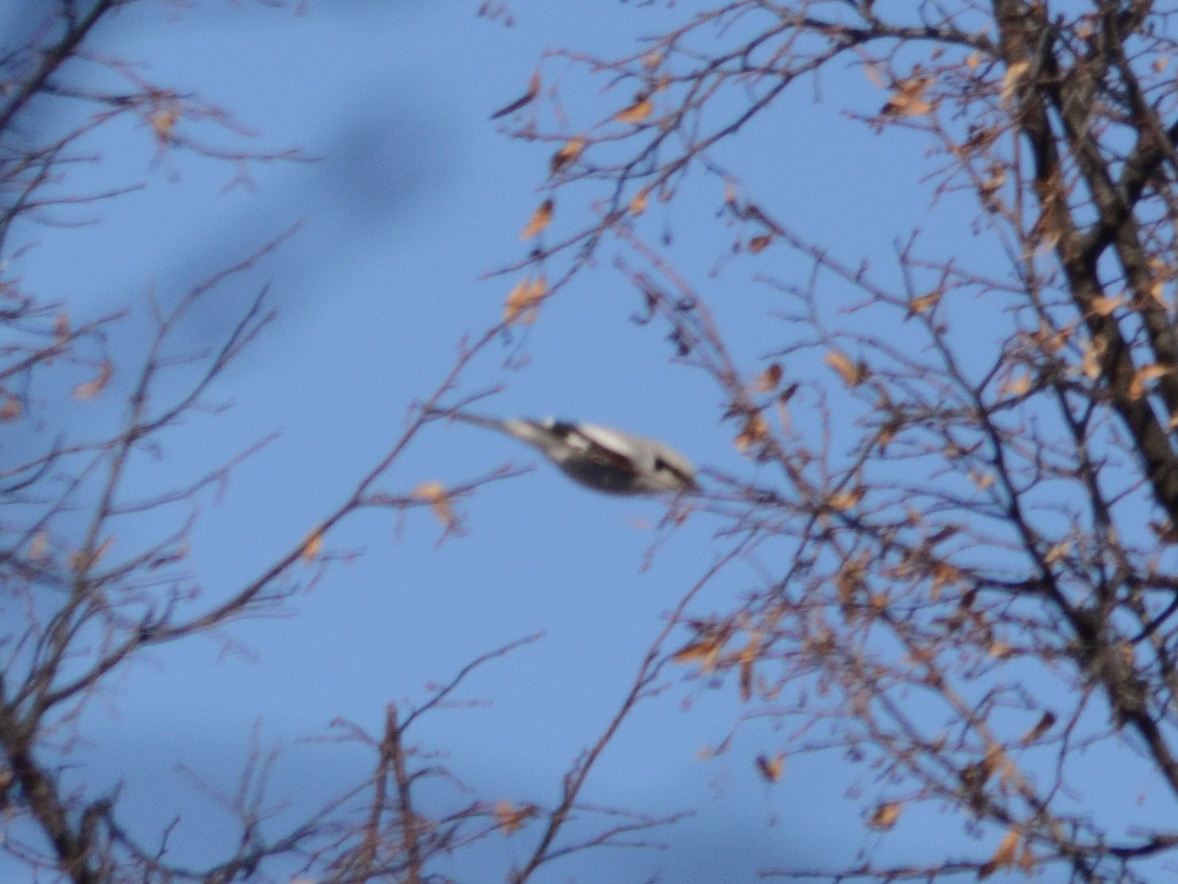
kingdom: Animalia
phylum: Chordata
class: Aves
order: Passeriformes
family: Laniidae
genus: Lanius
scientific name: Lanius excubitor
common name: Great grey shrike
